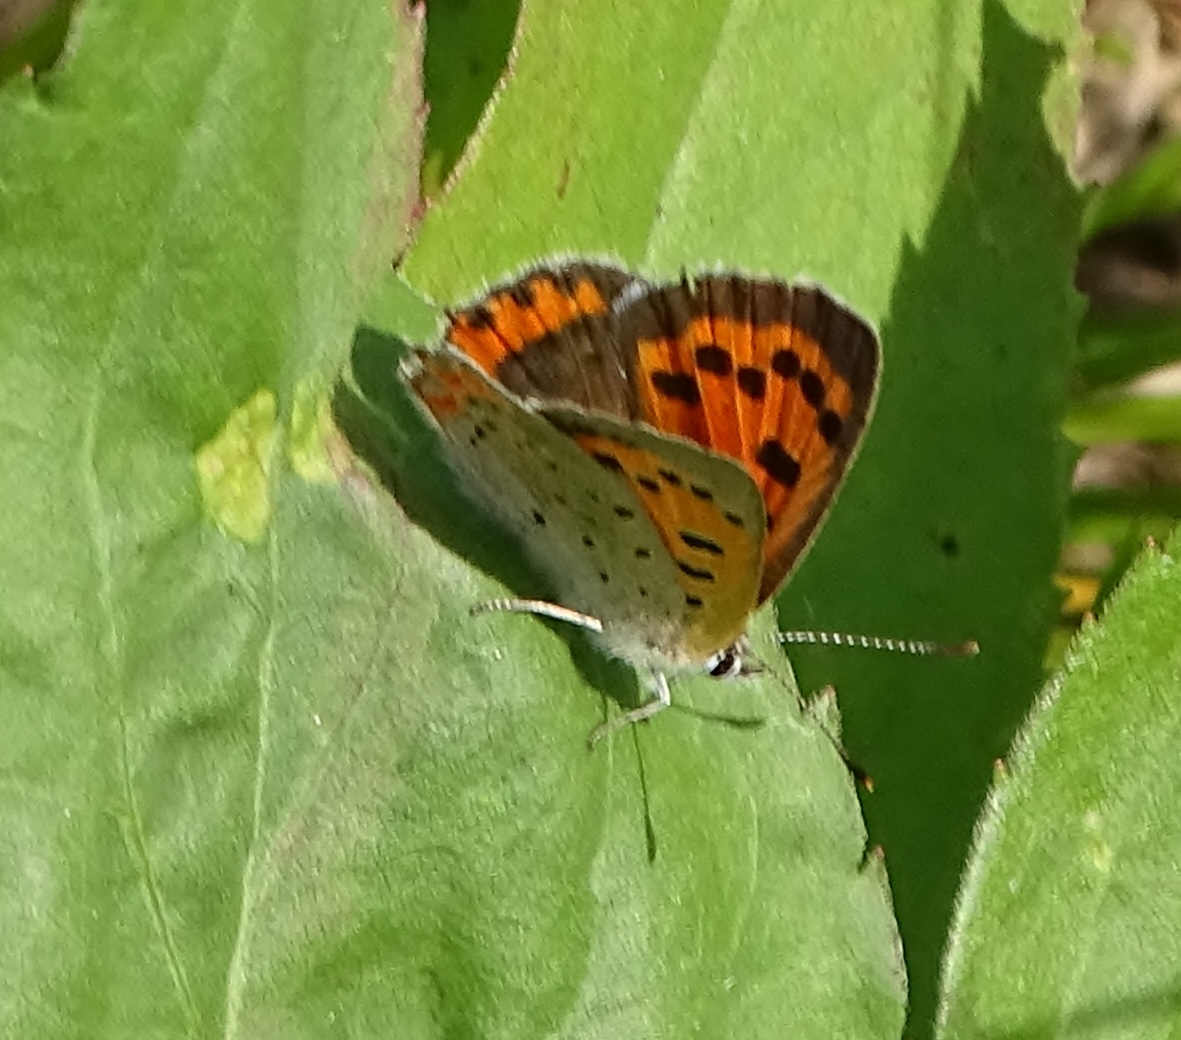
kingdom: Animalia
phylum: Arthropoda
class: Insecta
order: Lepidoptera
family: Lycaenidae
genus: Lycaena
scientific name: Lycaena hypophlaeas
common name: American copper
